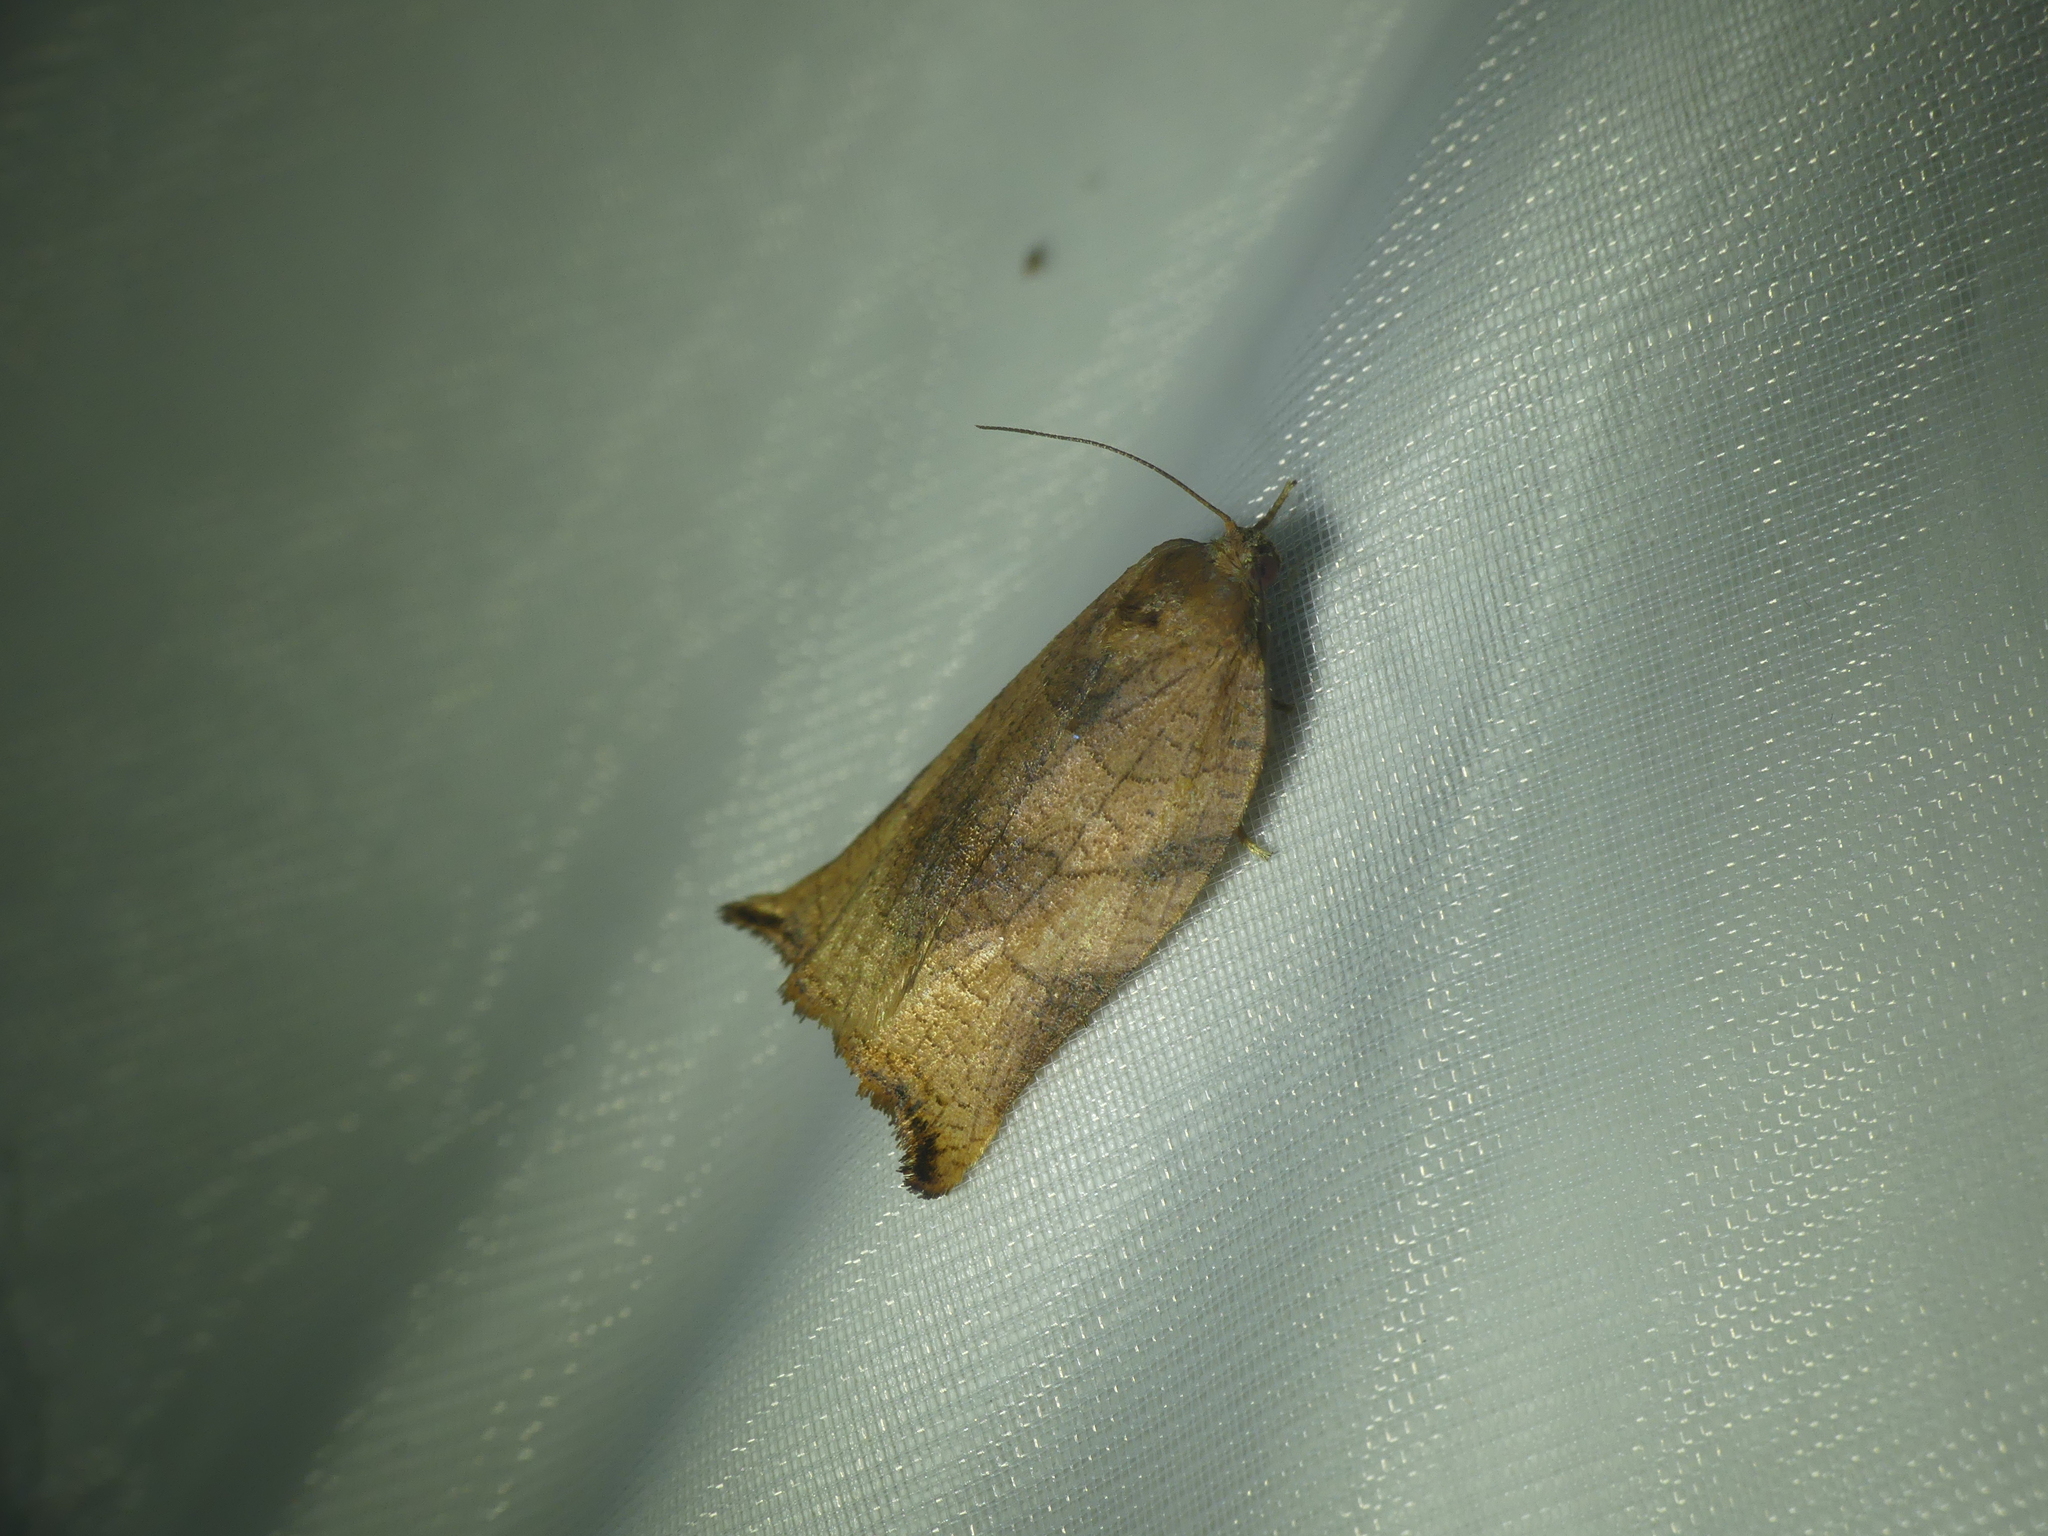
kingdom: Animalia
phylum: Arthropoda
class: Insecta
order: Lepidoptera
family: Tortricidae
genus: Archips
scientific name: Archips podana
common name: Large fruit-tree tortrix
